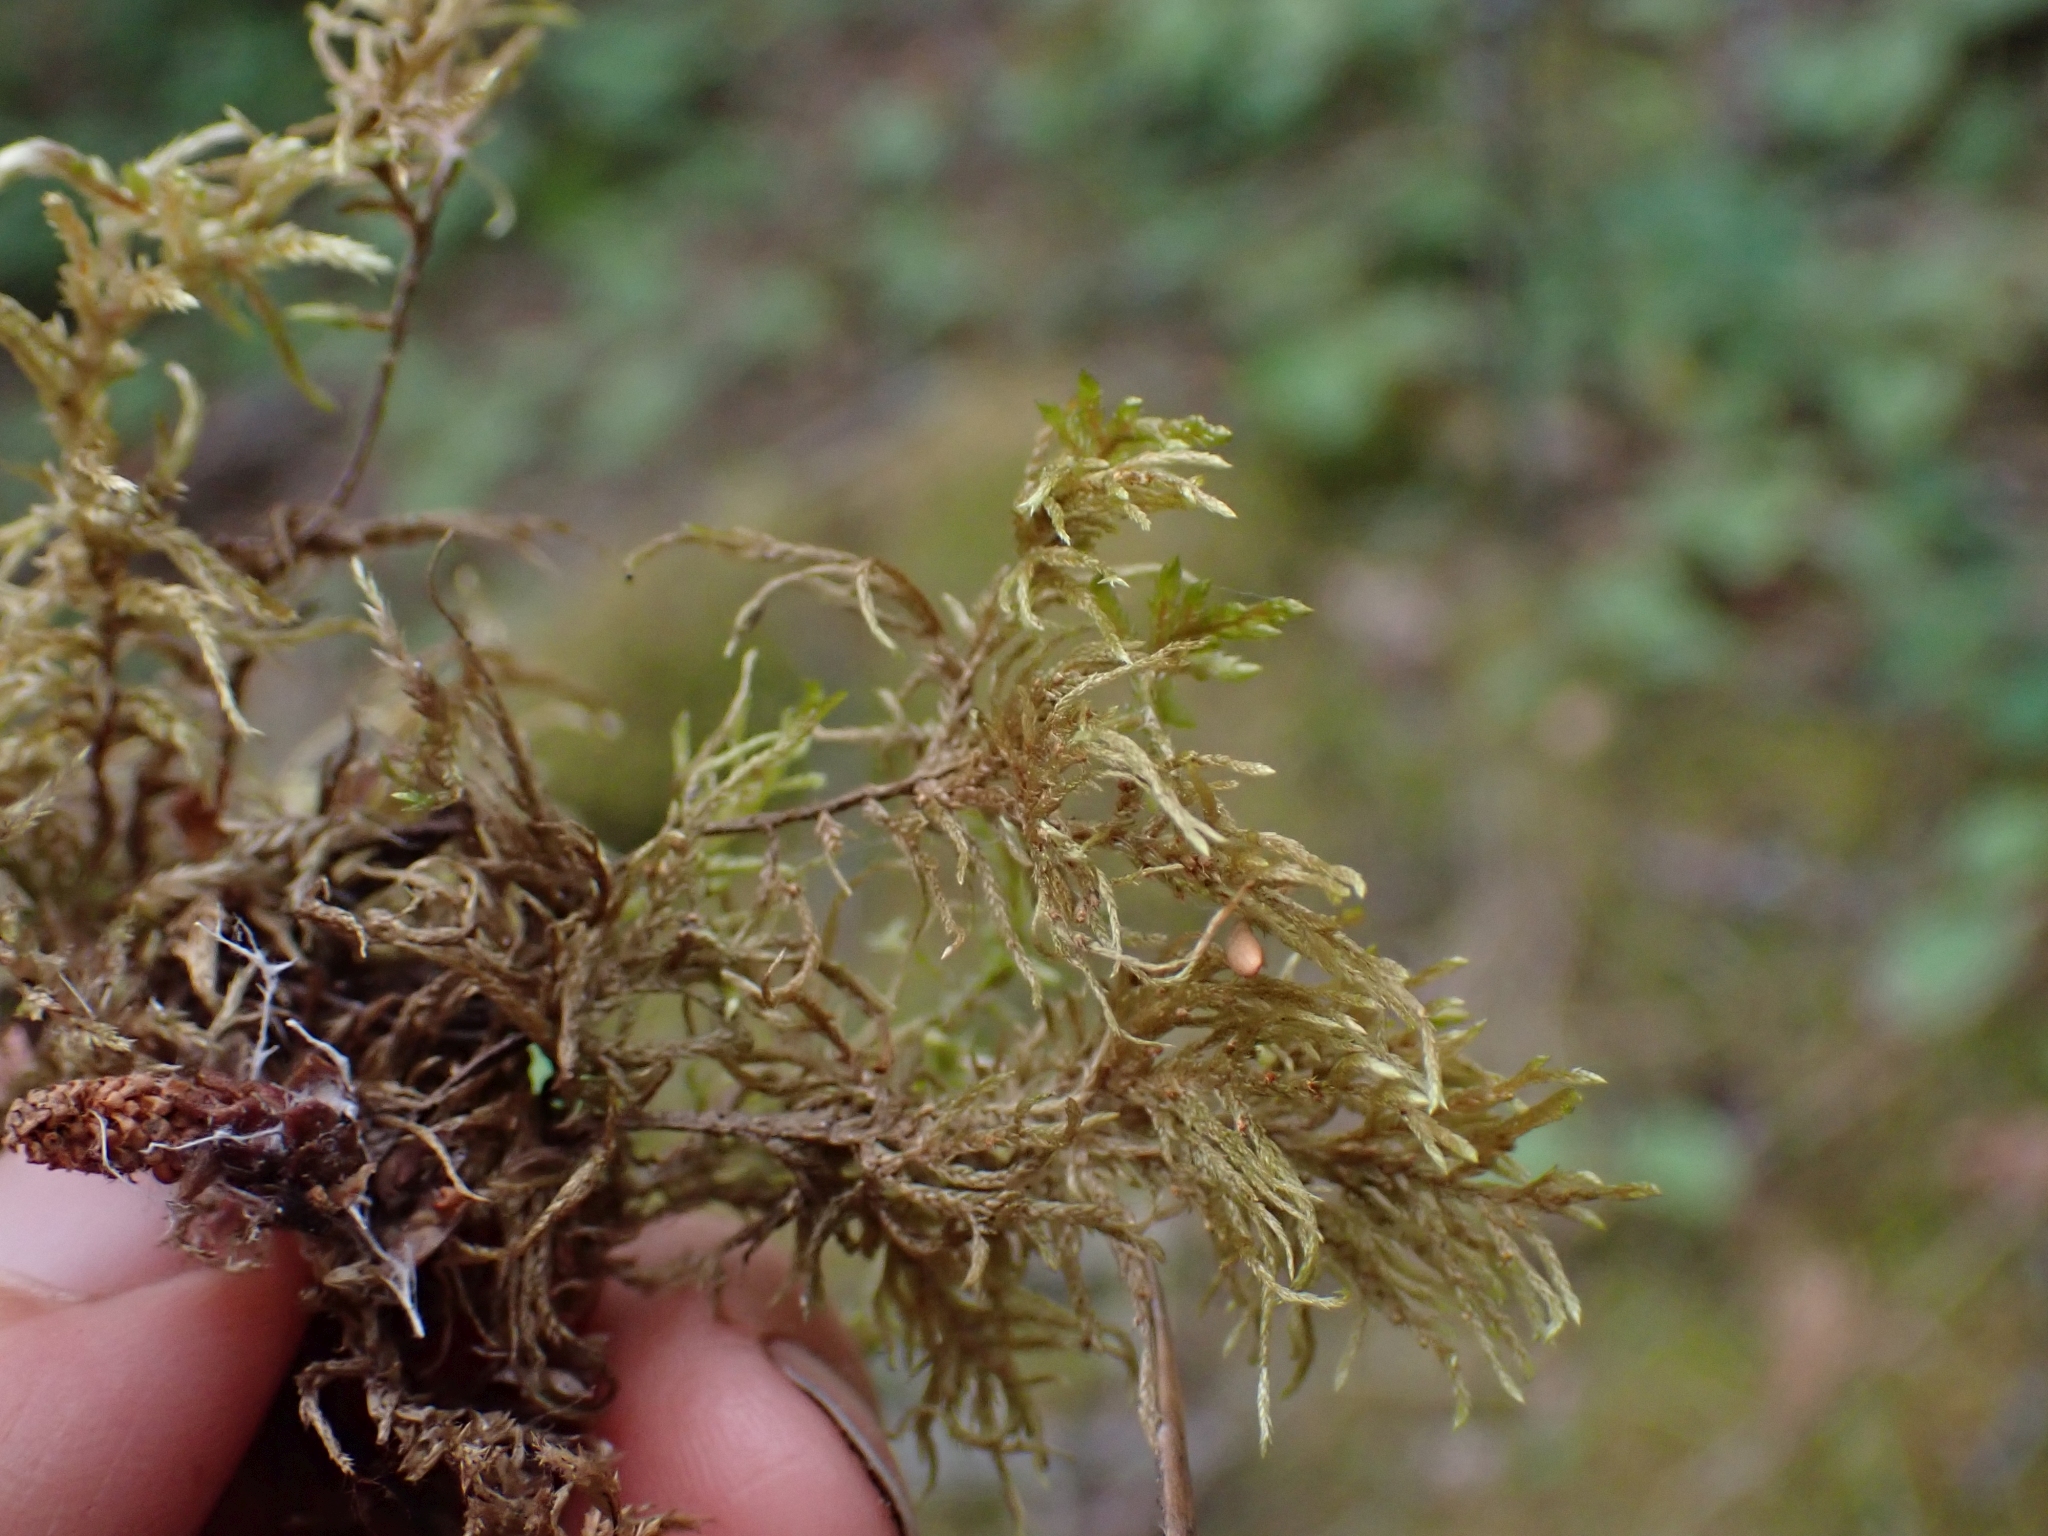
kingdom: Plantae
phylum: Bryophyta
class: Bryopsida
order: Hypnales
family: Hylocomiaceae
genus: Hylocomium
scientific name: Hylocomium splendens
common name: Stairstep moss
